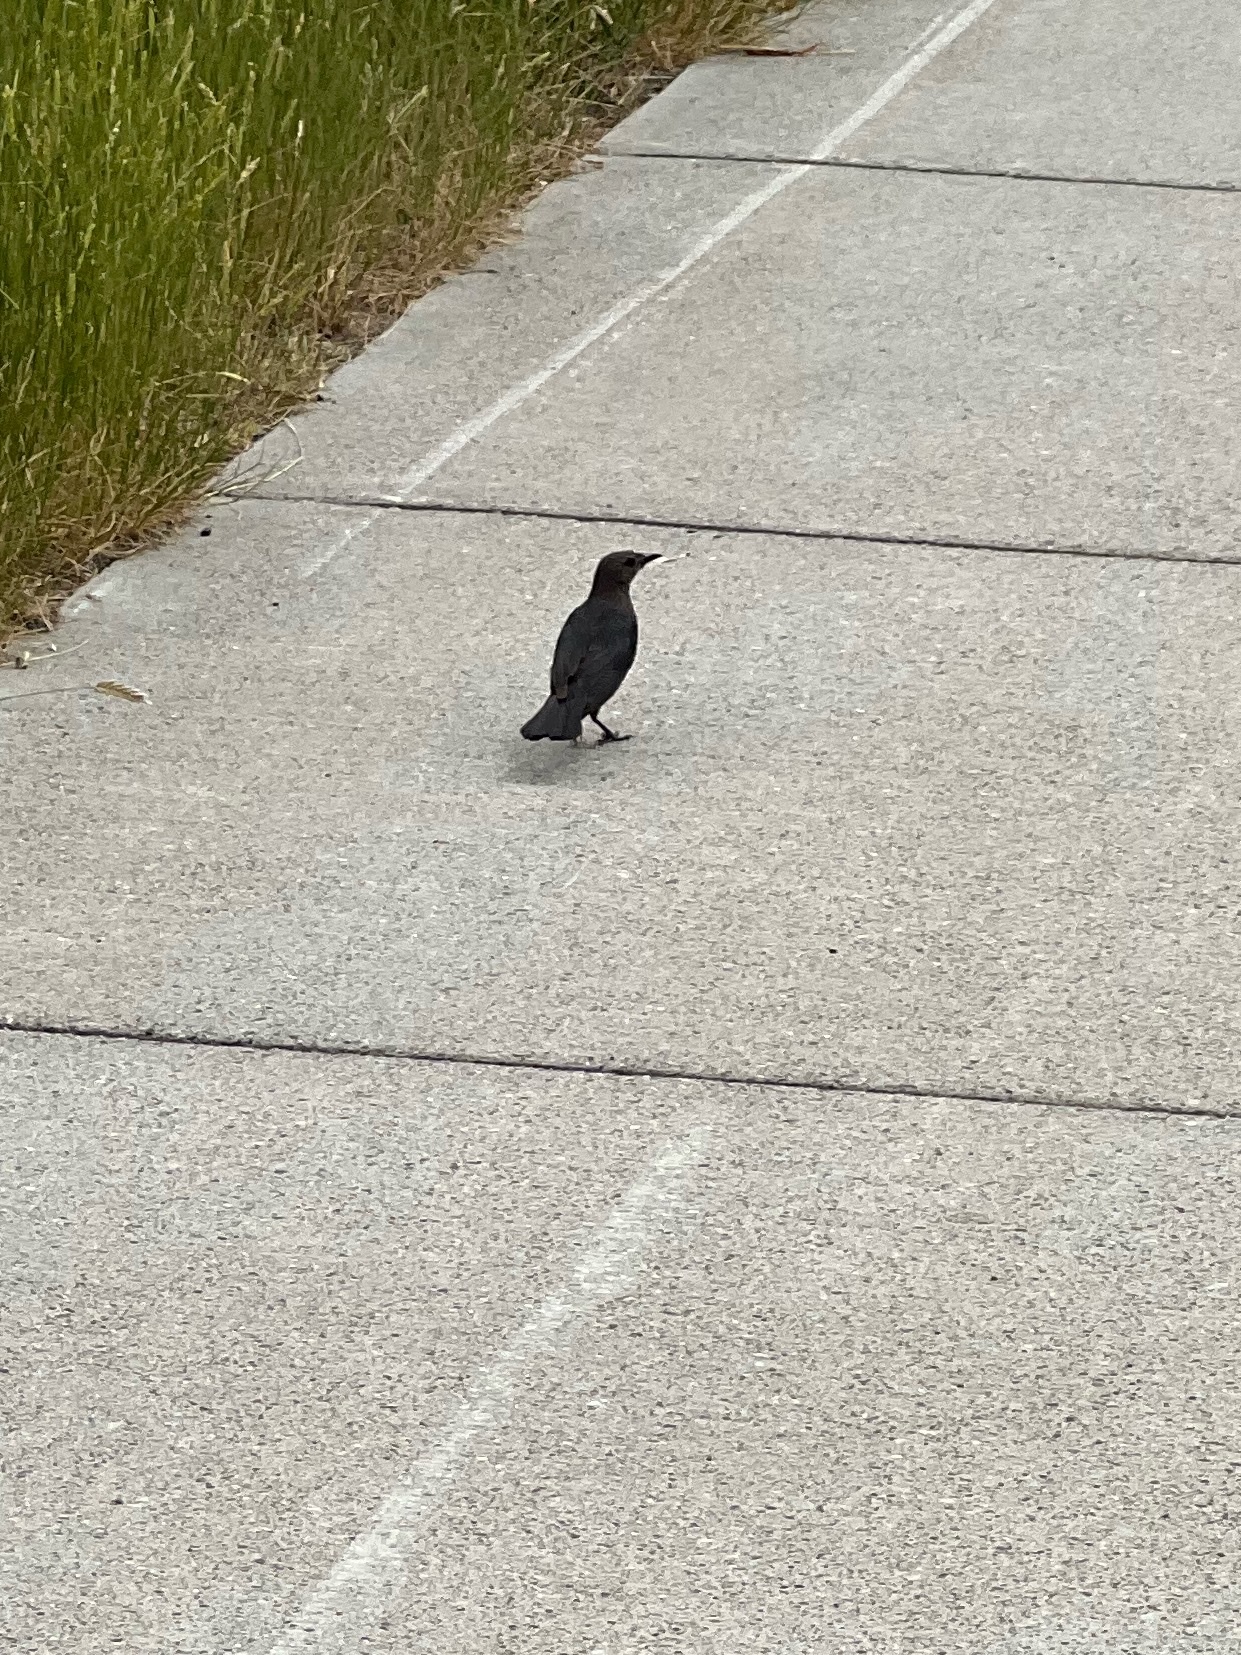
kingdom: Animalia
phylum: Chordata
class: Aves
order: Passeriformes
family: Icteridae
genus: Euphagus
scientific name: Euphagus cyanocephalus
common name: Brewer's blackbird
